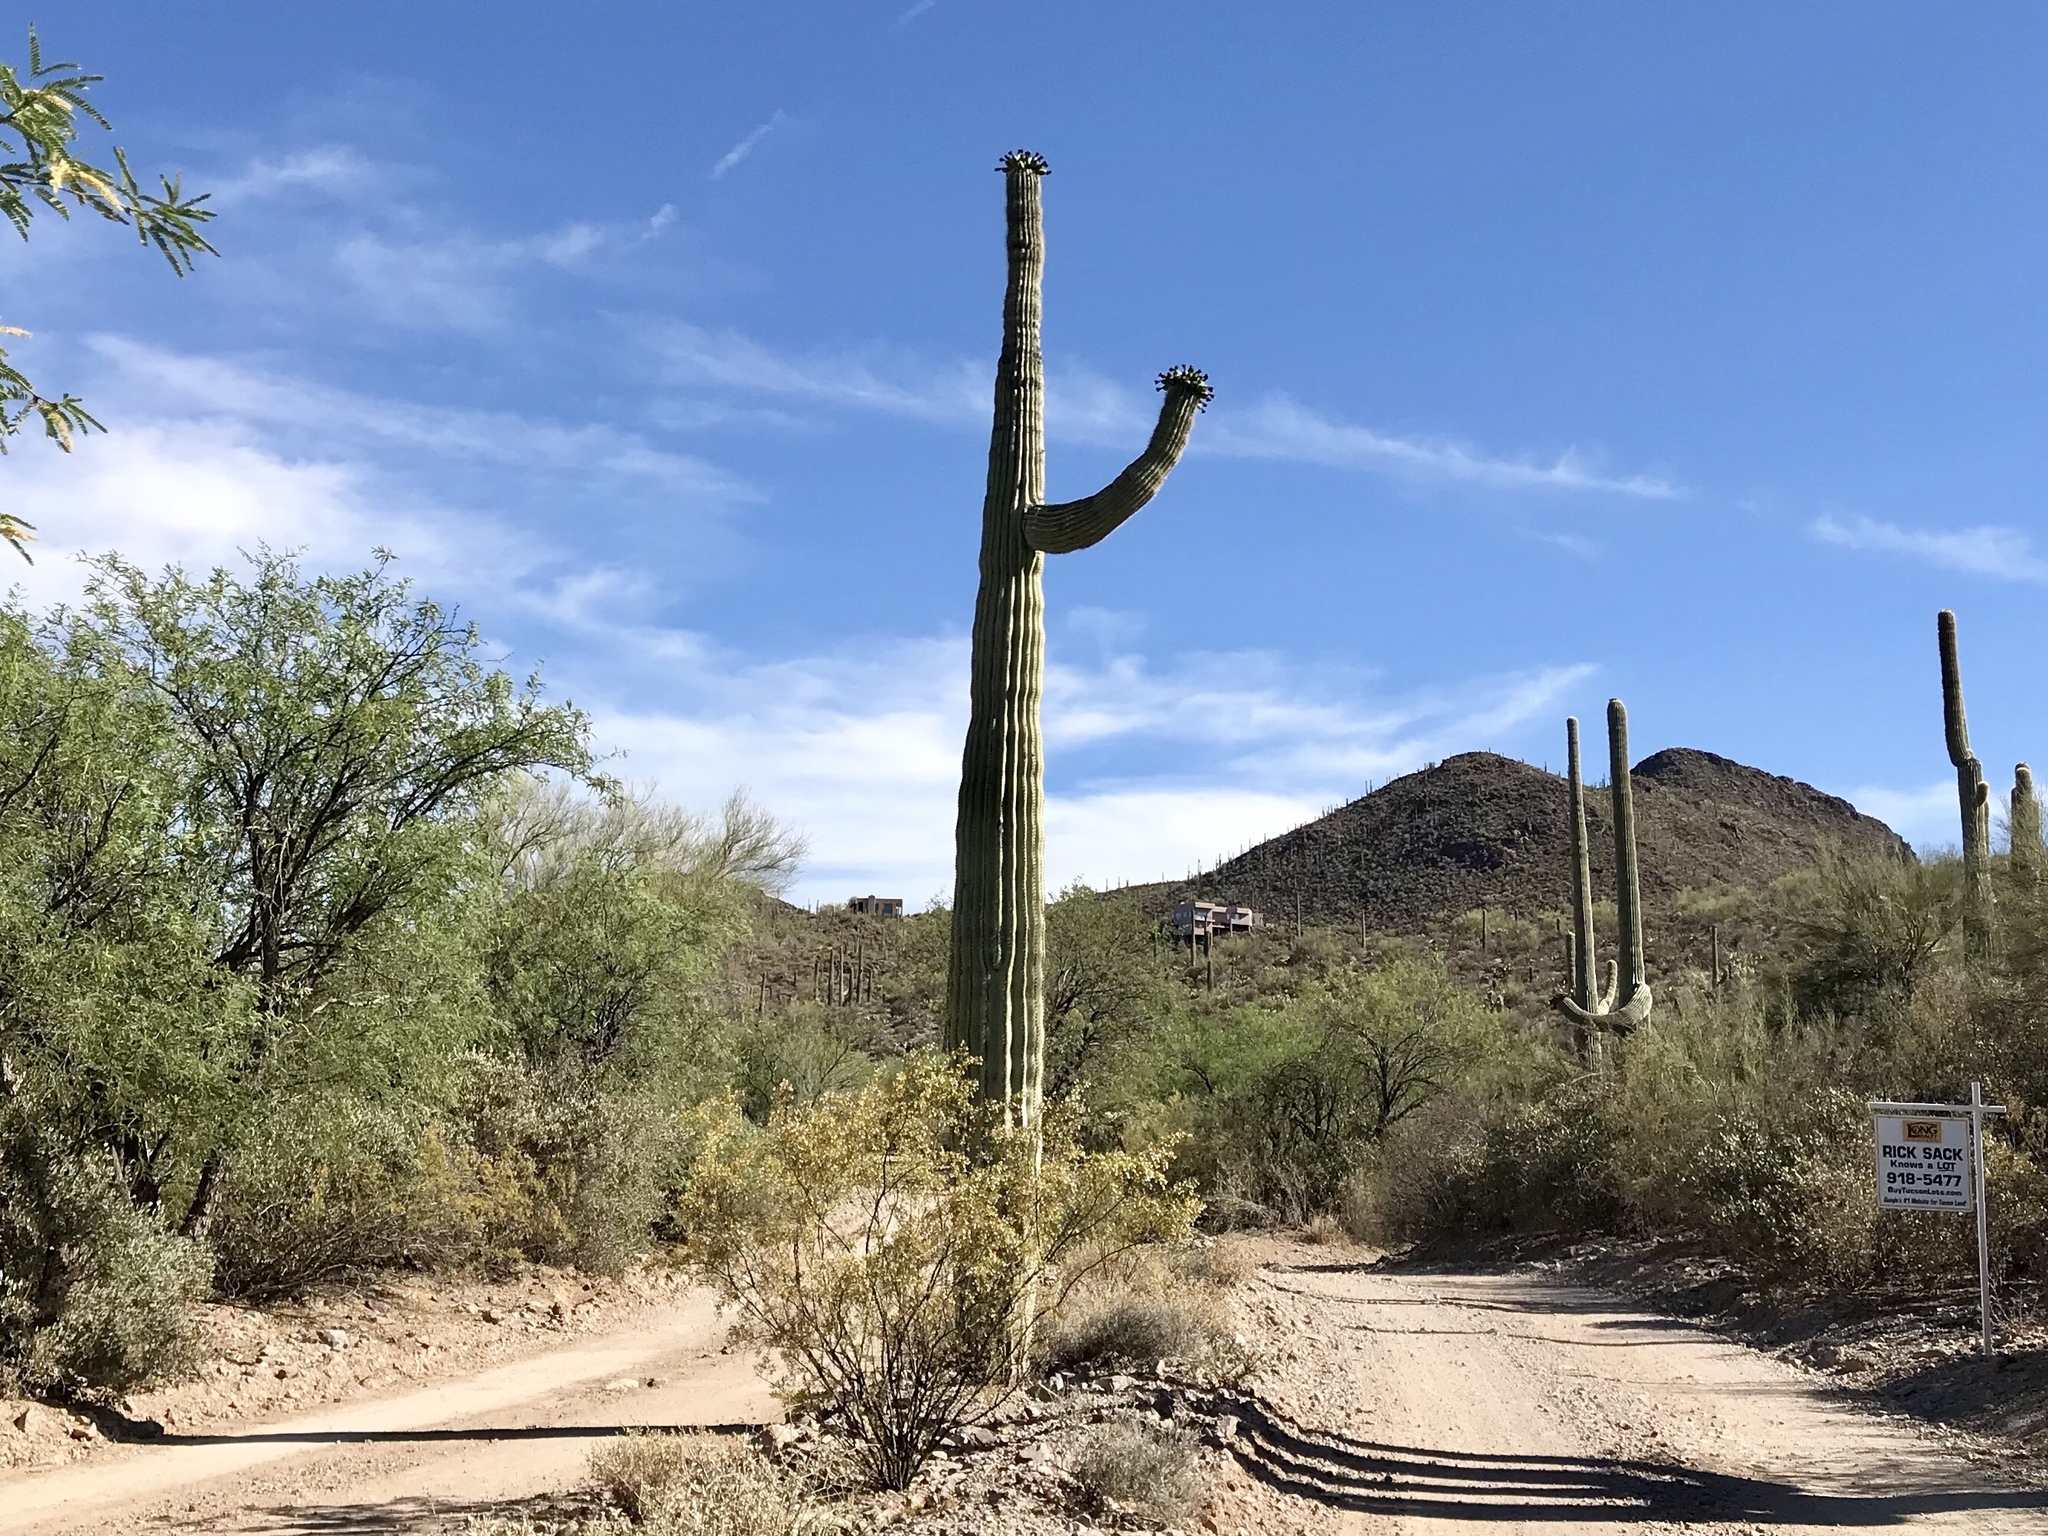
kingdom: Plantae
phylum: Tracheophyta
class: Magnoliopsida
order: Caryophyllales
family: Cactaceae
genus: Carnegiea
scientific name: Carnegiea gigantea
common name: Saguaro
